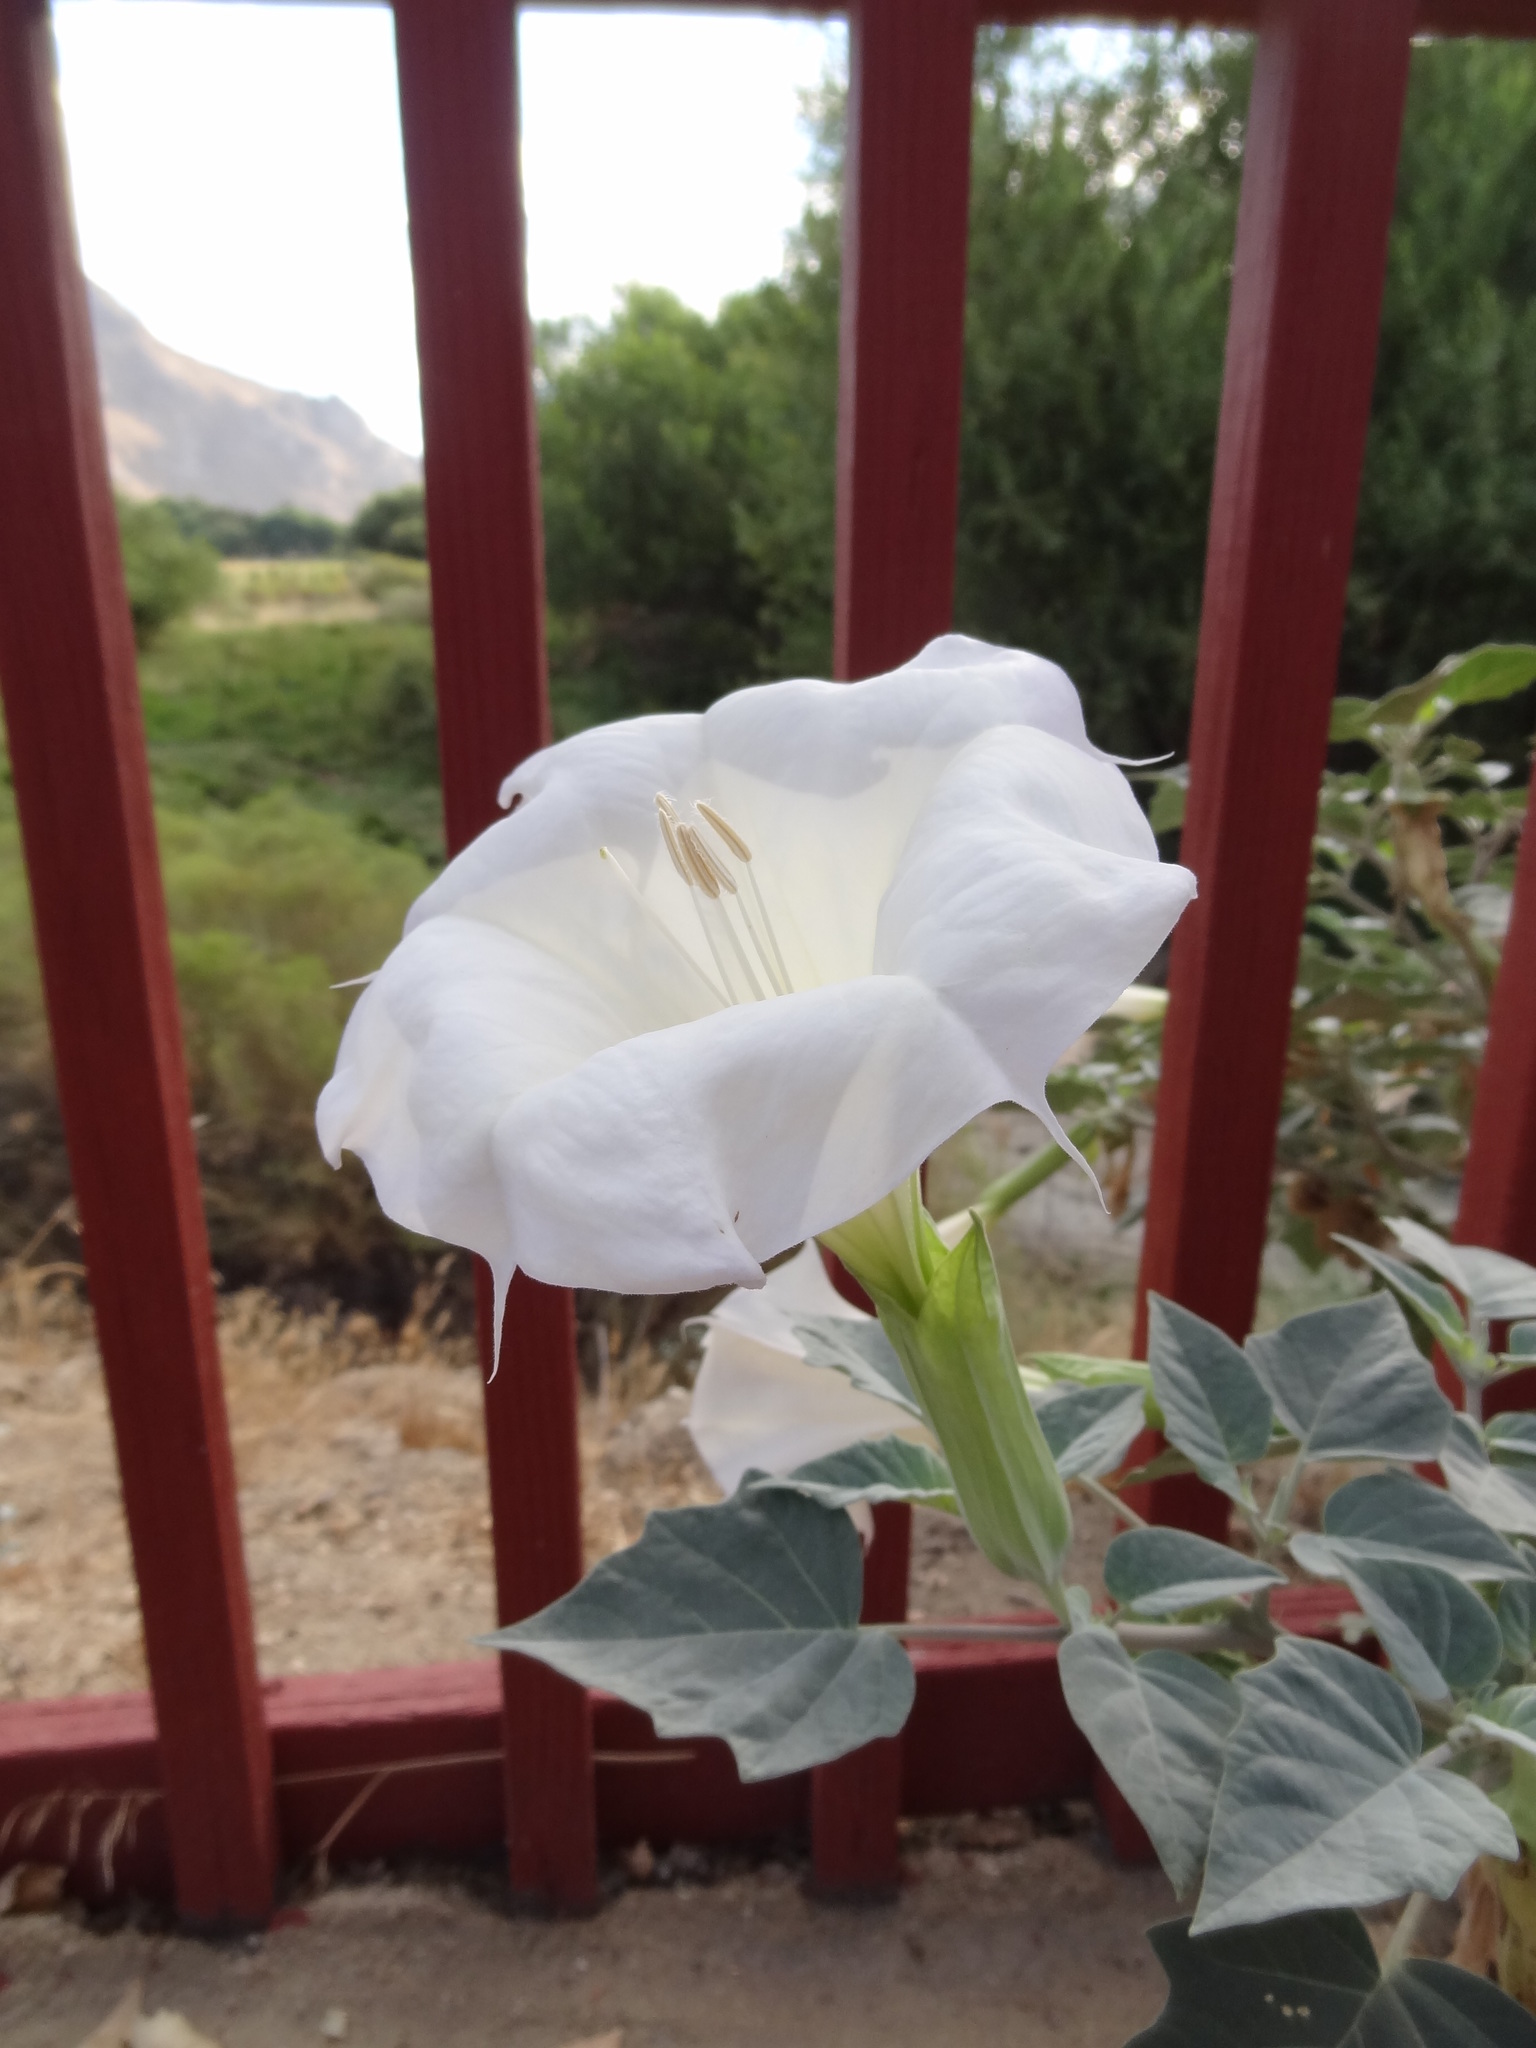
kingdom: Plantae
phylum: Tracheophyta
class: Magnoliopsida
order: Solanales
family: Solanaceae
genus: Datura
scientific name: Datura wrightii
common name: Sacred thorn-apple
